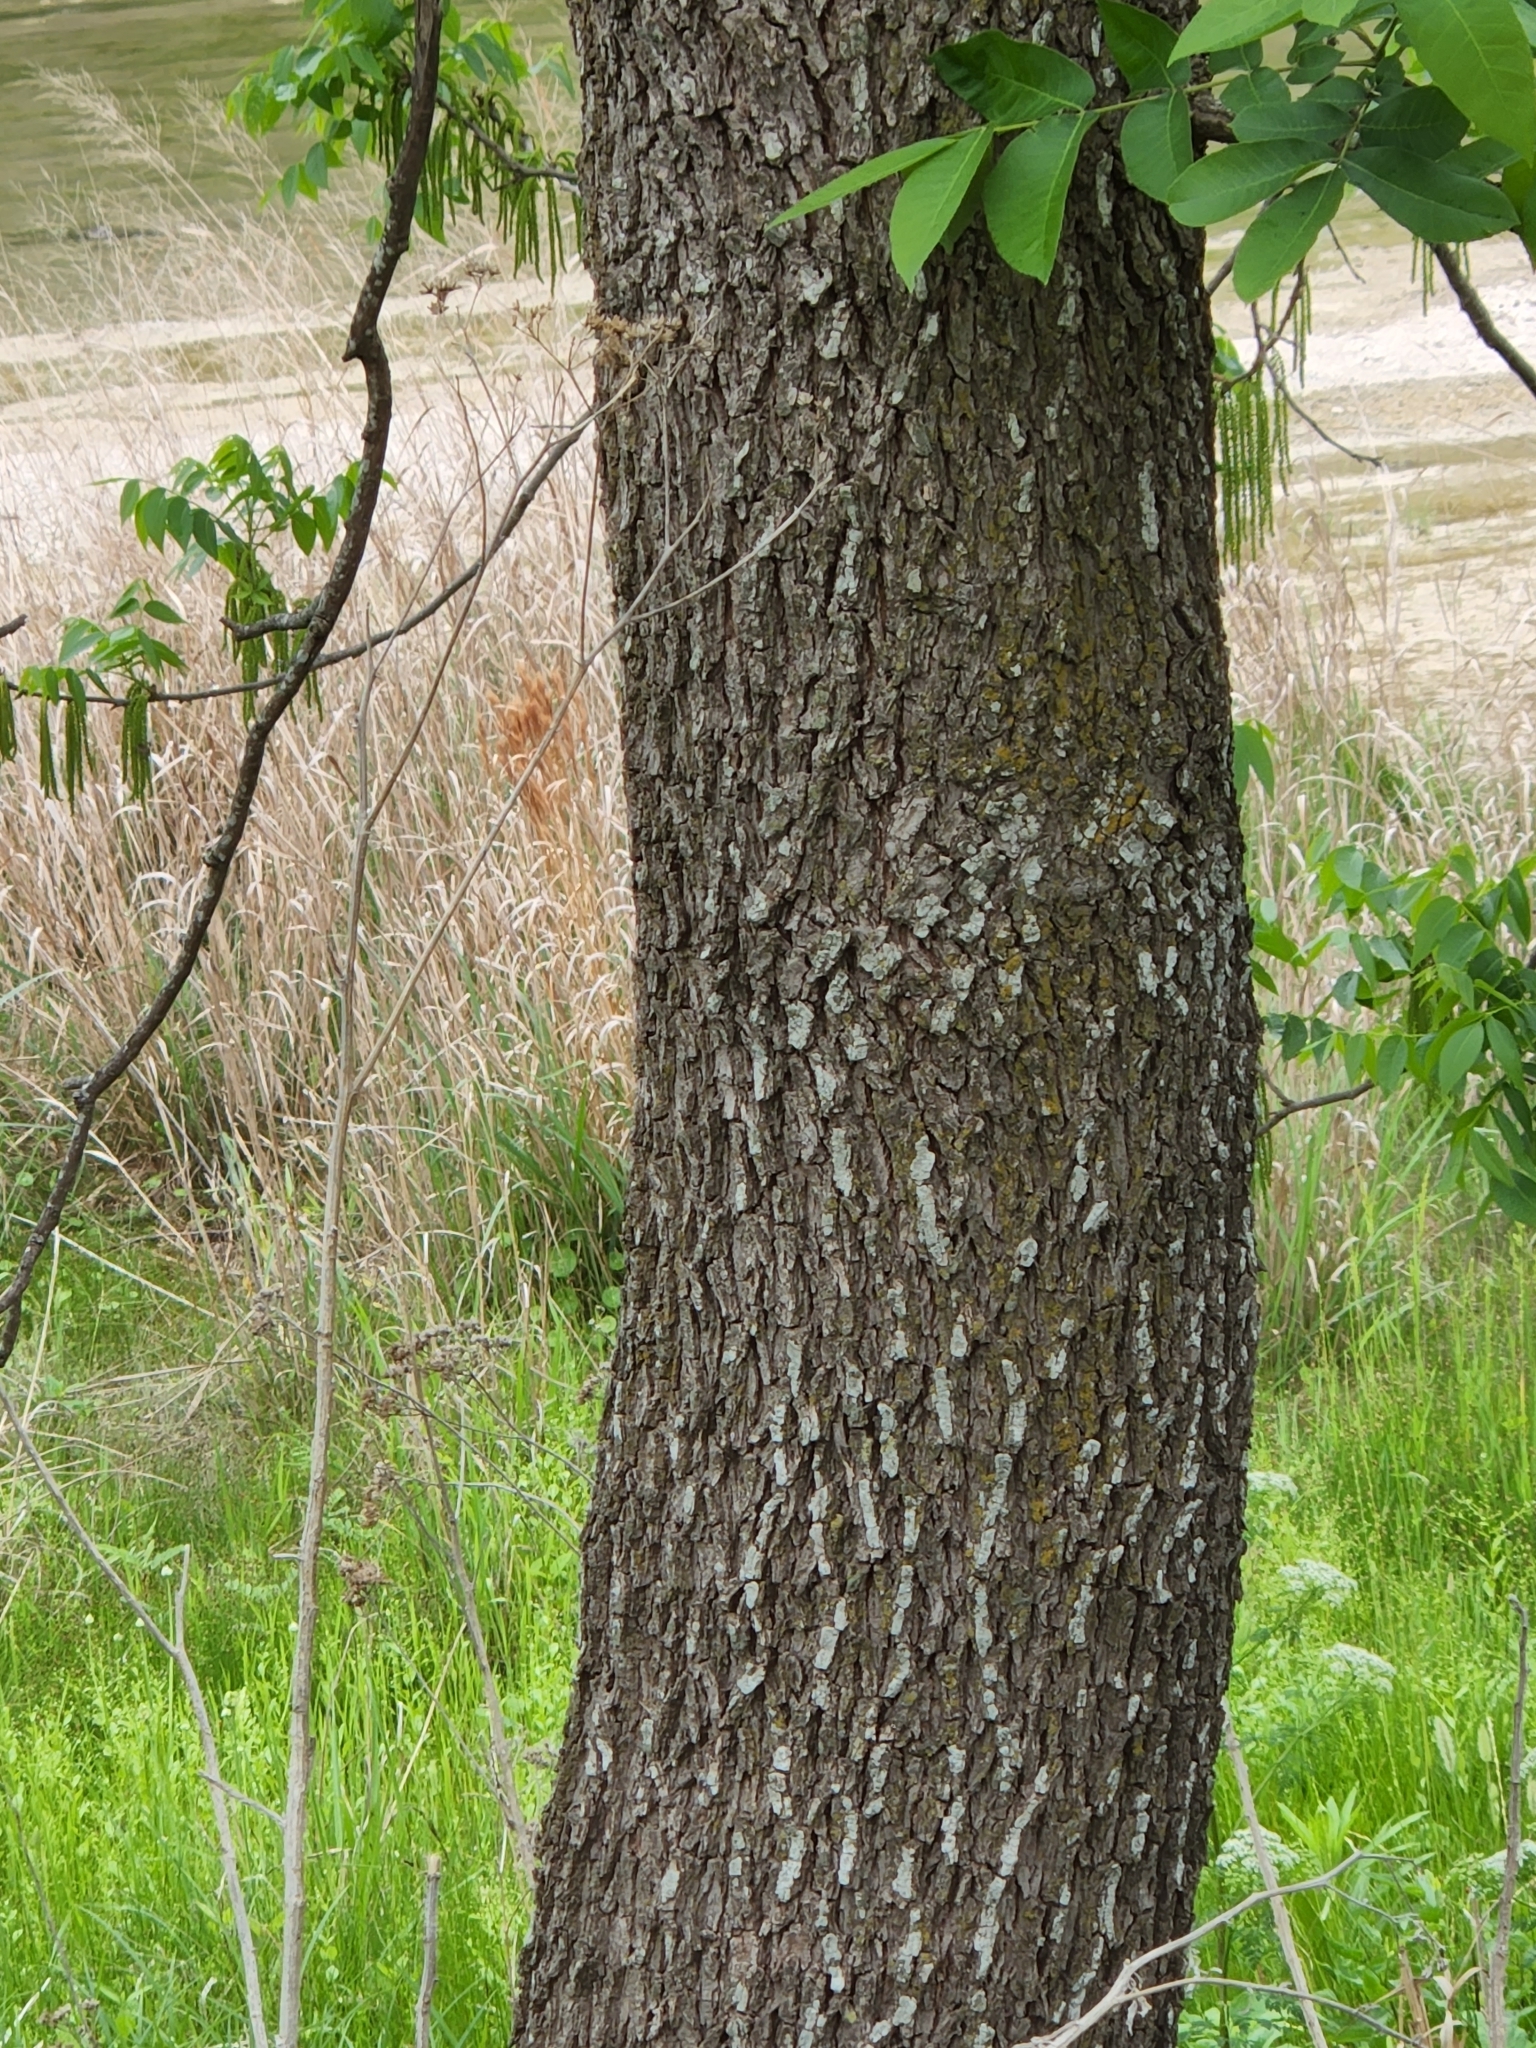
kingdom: Plantae
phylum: Tracheophyta
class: Magnoliopsida
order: Fagales
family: Juglandaceae
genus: Carya
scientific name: Carya illinoinensis
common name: Pecan
